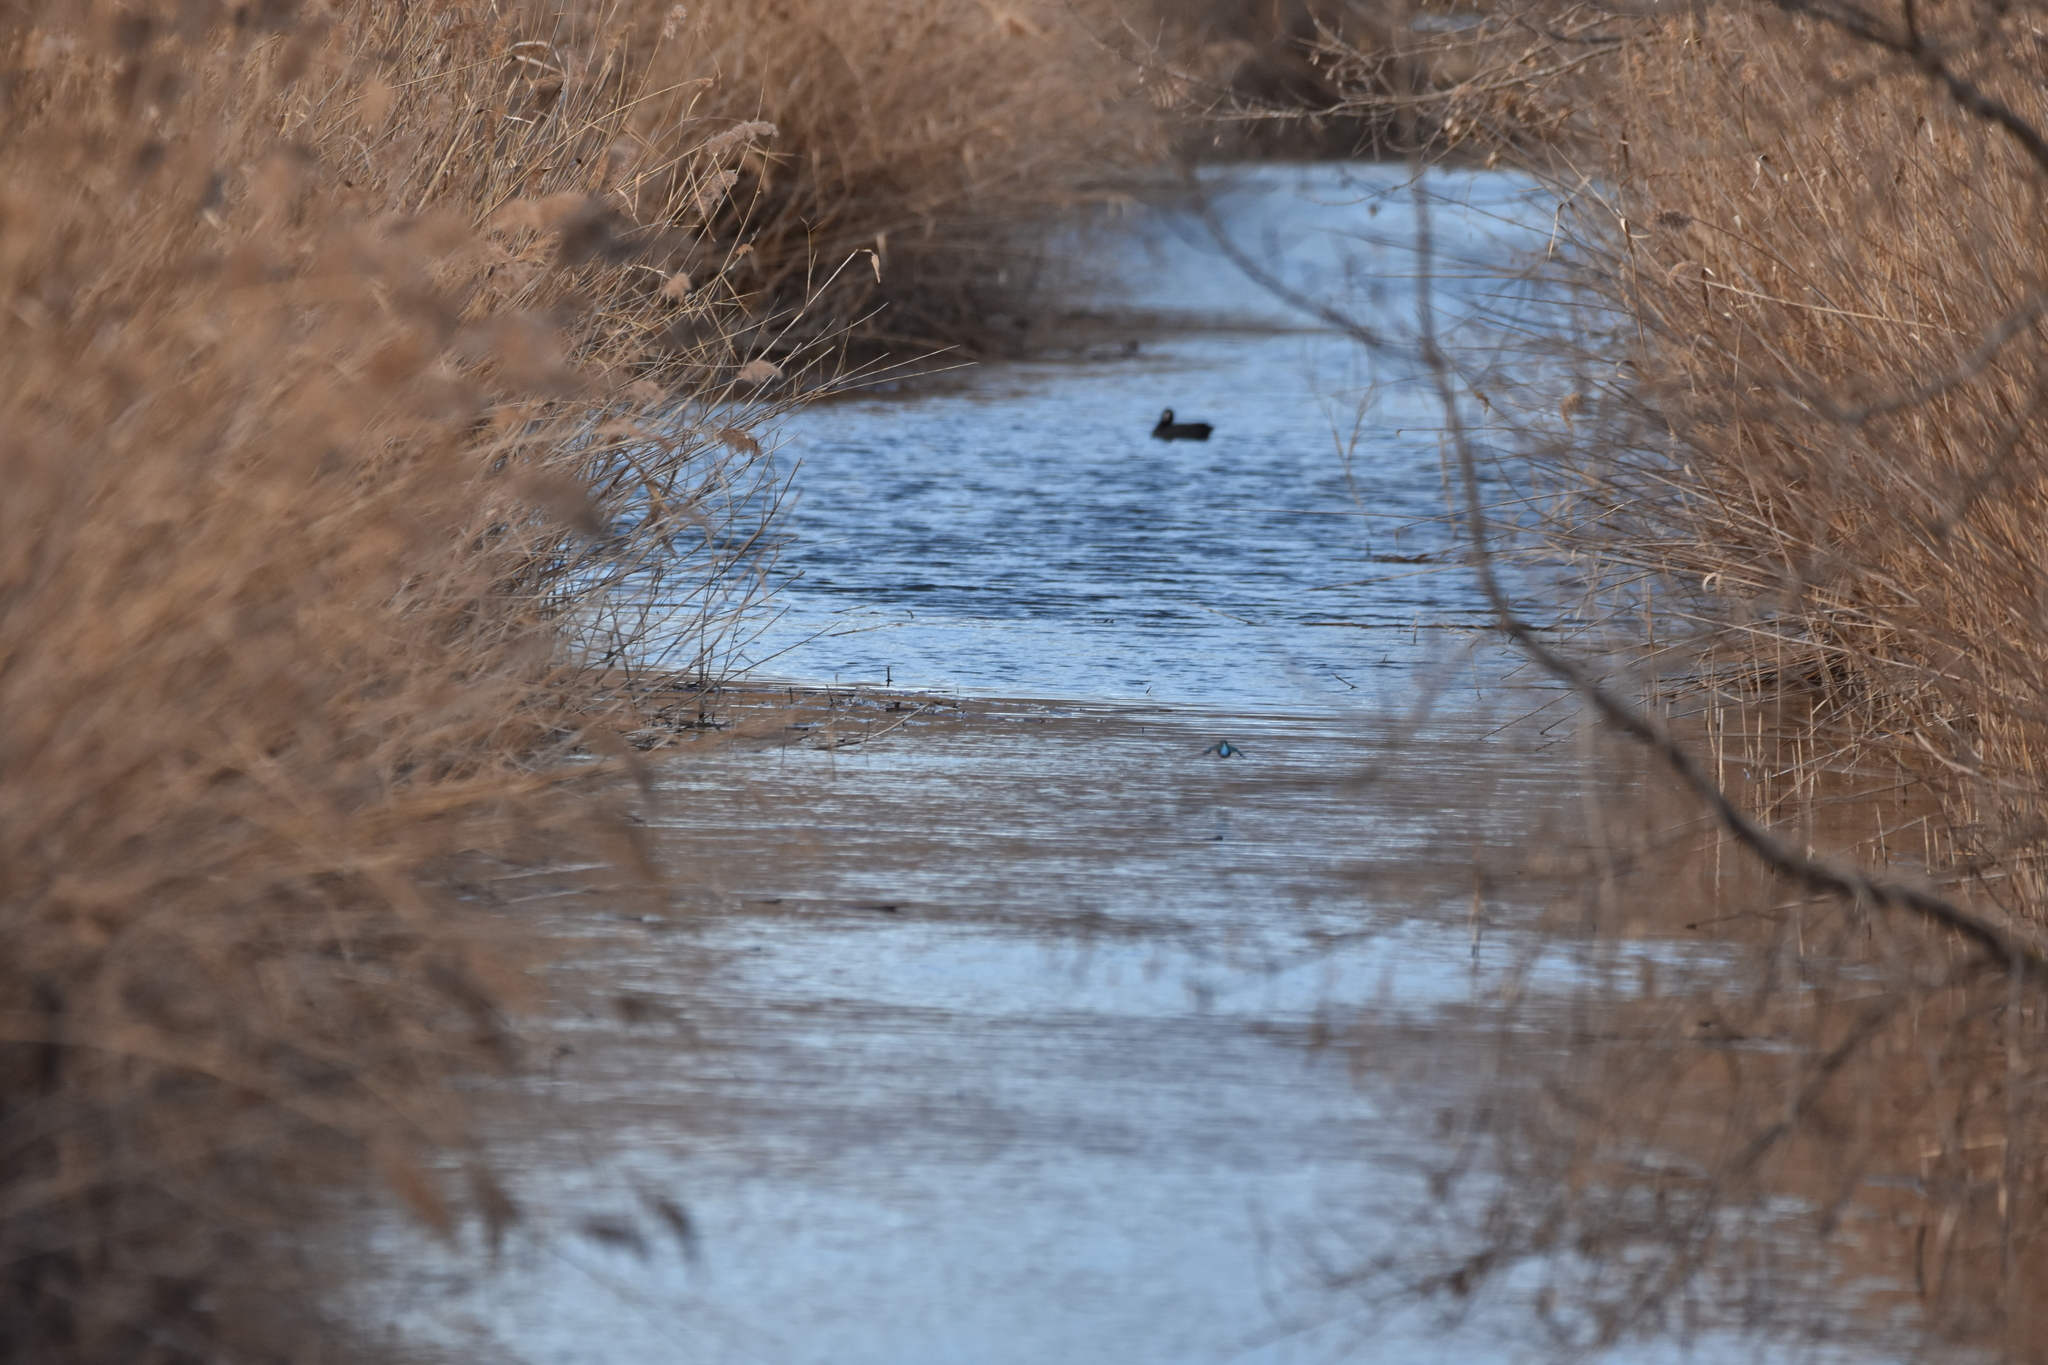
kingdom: Animalia
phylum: Chordata
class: Aves
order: Coraciiformes
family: Alcedinidae
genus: Alcedo
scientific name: Alcedo atthis
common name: Common kingfisher
